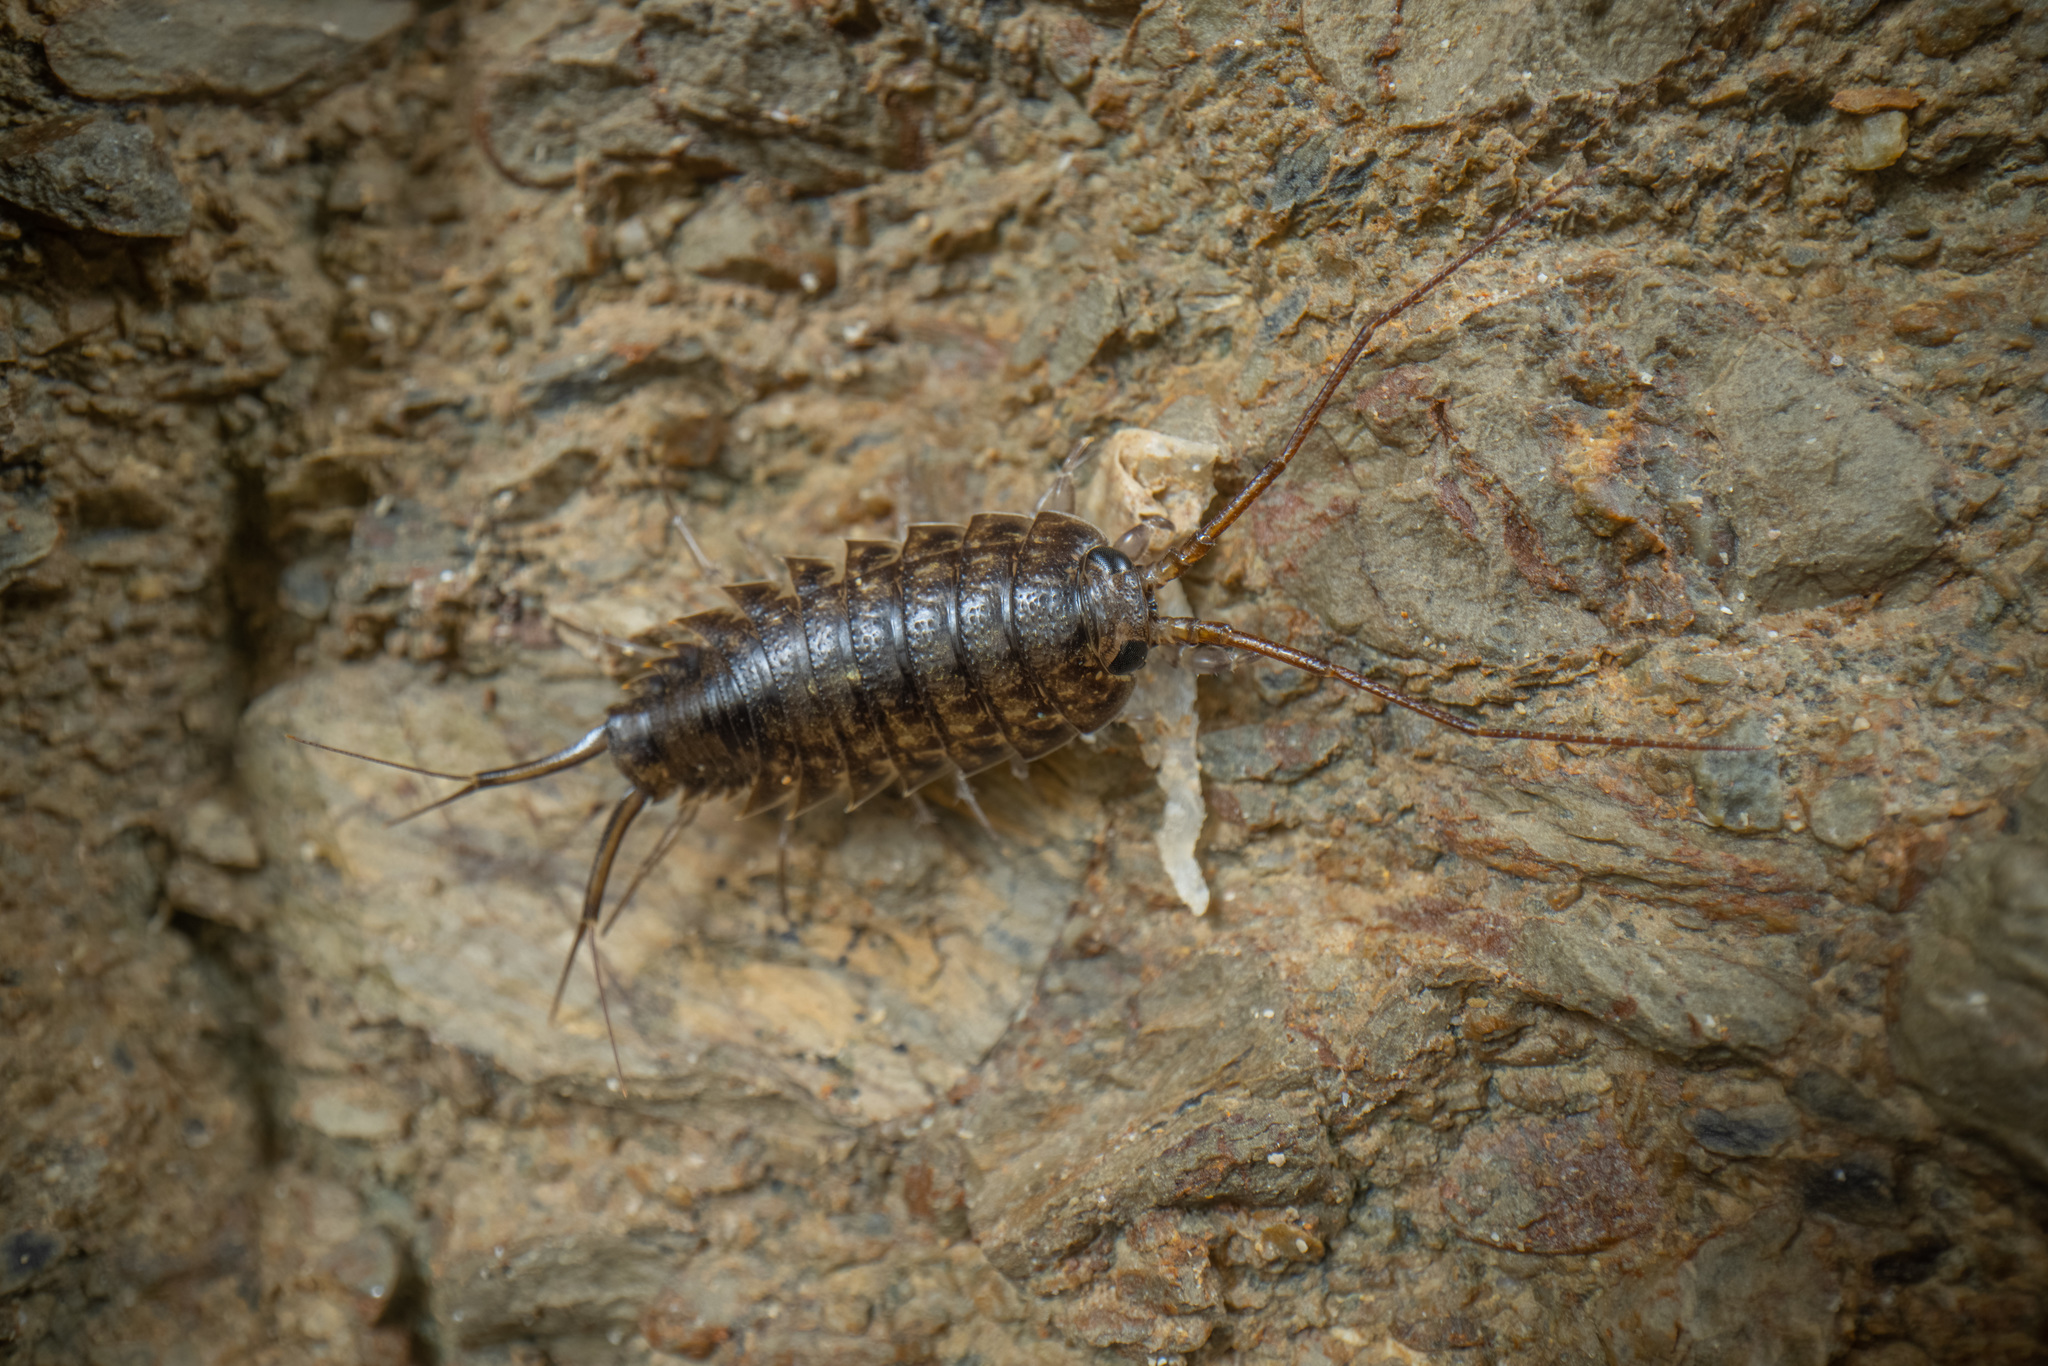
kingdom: Animalia
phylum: Arthropoda
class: Malacostraca
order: Isopoda
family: Ligiidae
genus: Ligia
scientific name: Ligia novizealandiae
